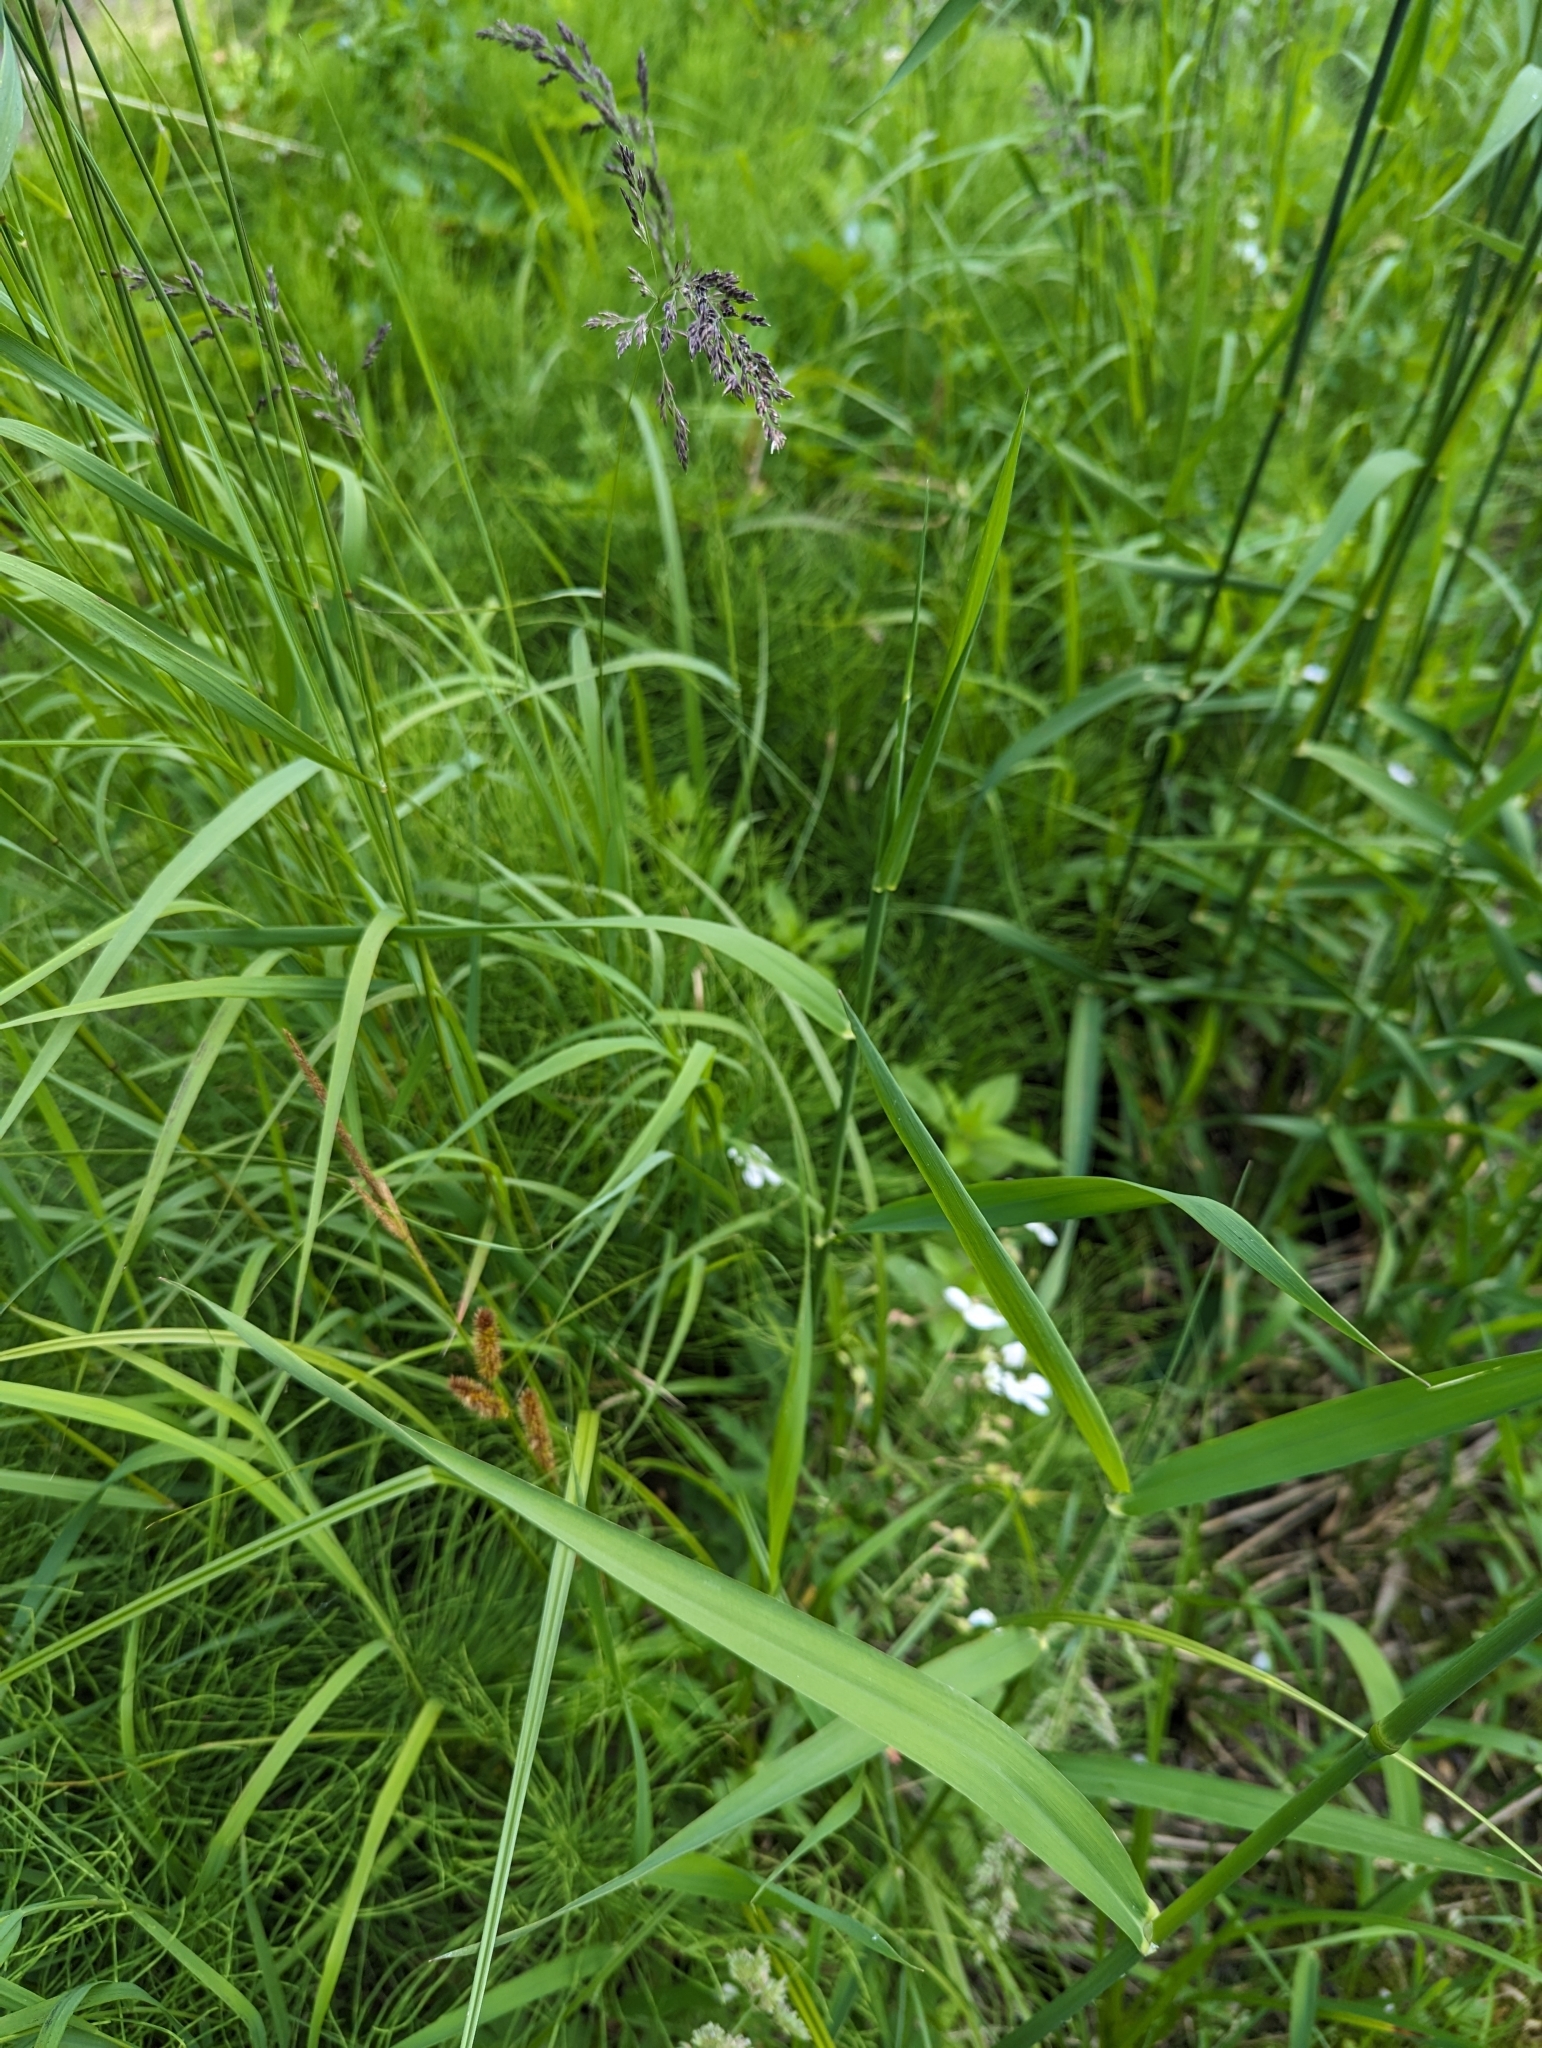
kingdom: Plantae
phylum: Tracheophyta
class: Liliopsida
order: Poales
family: Cyperaceae
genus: Carex
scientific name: Carex utriculata
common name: Beaked sedge
